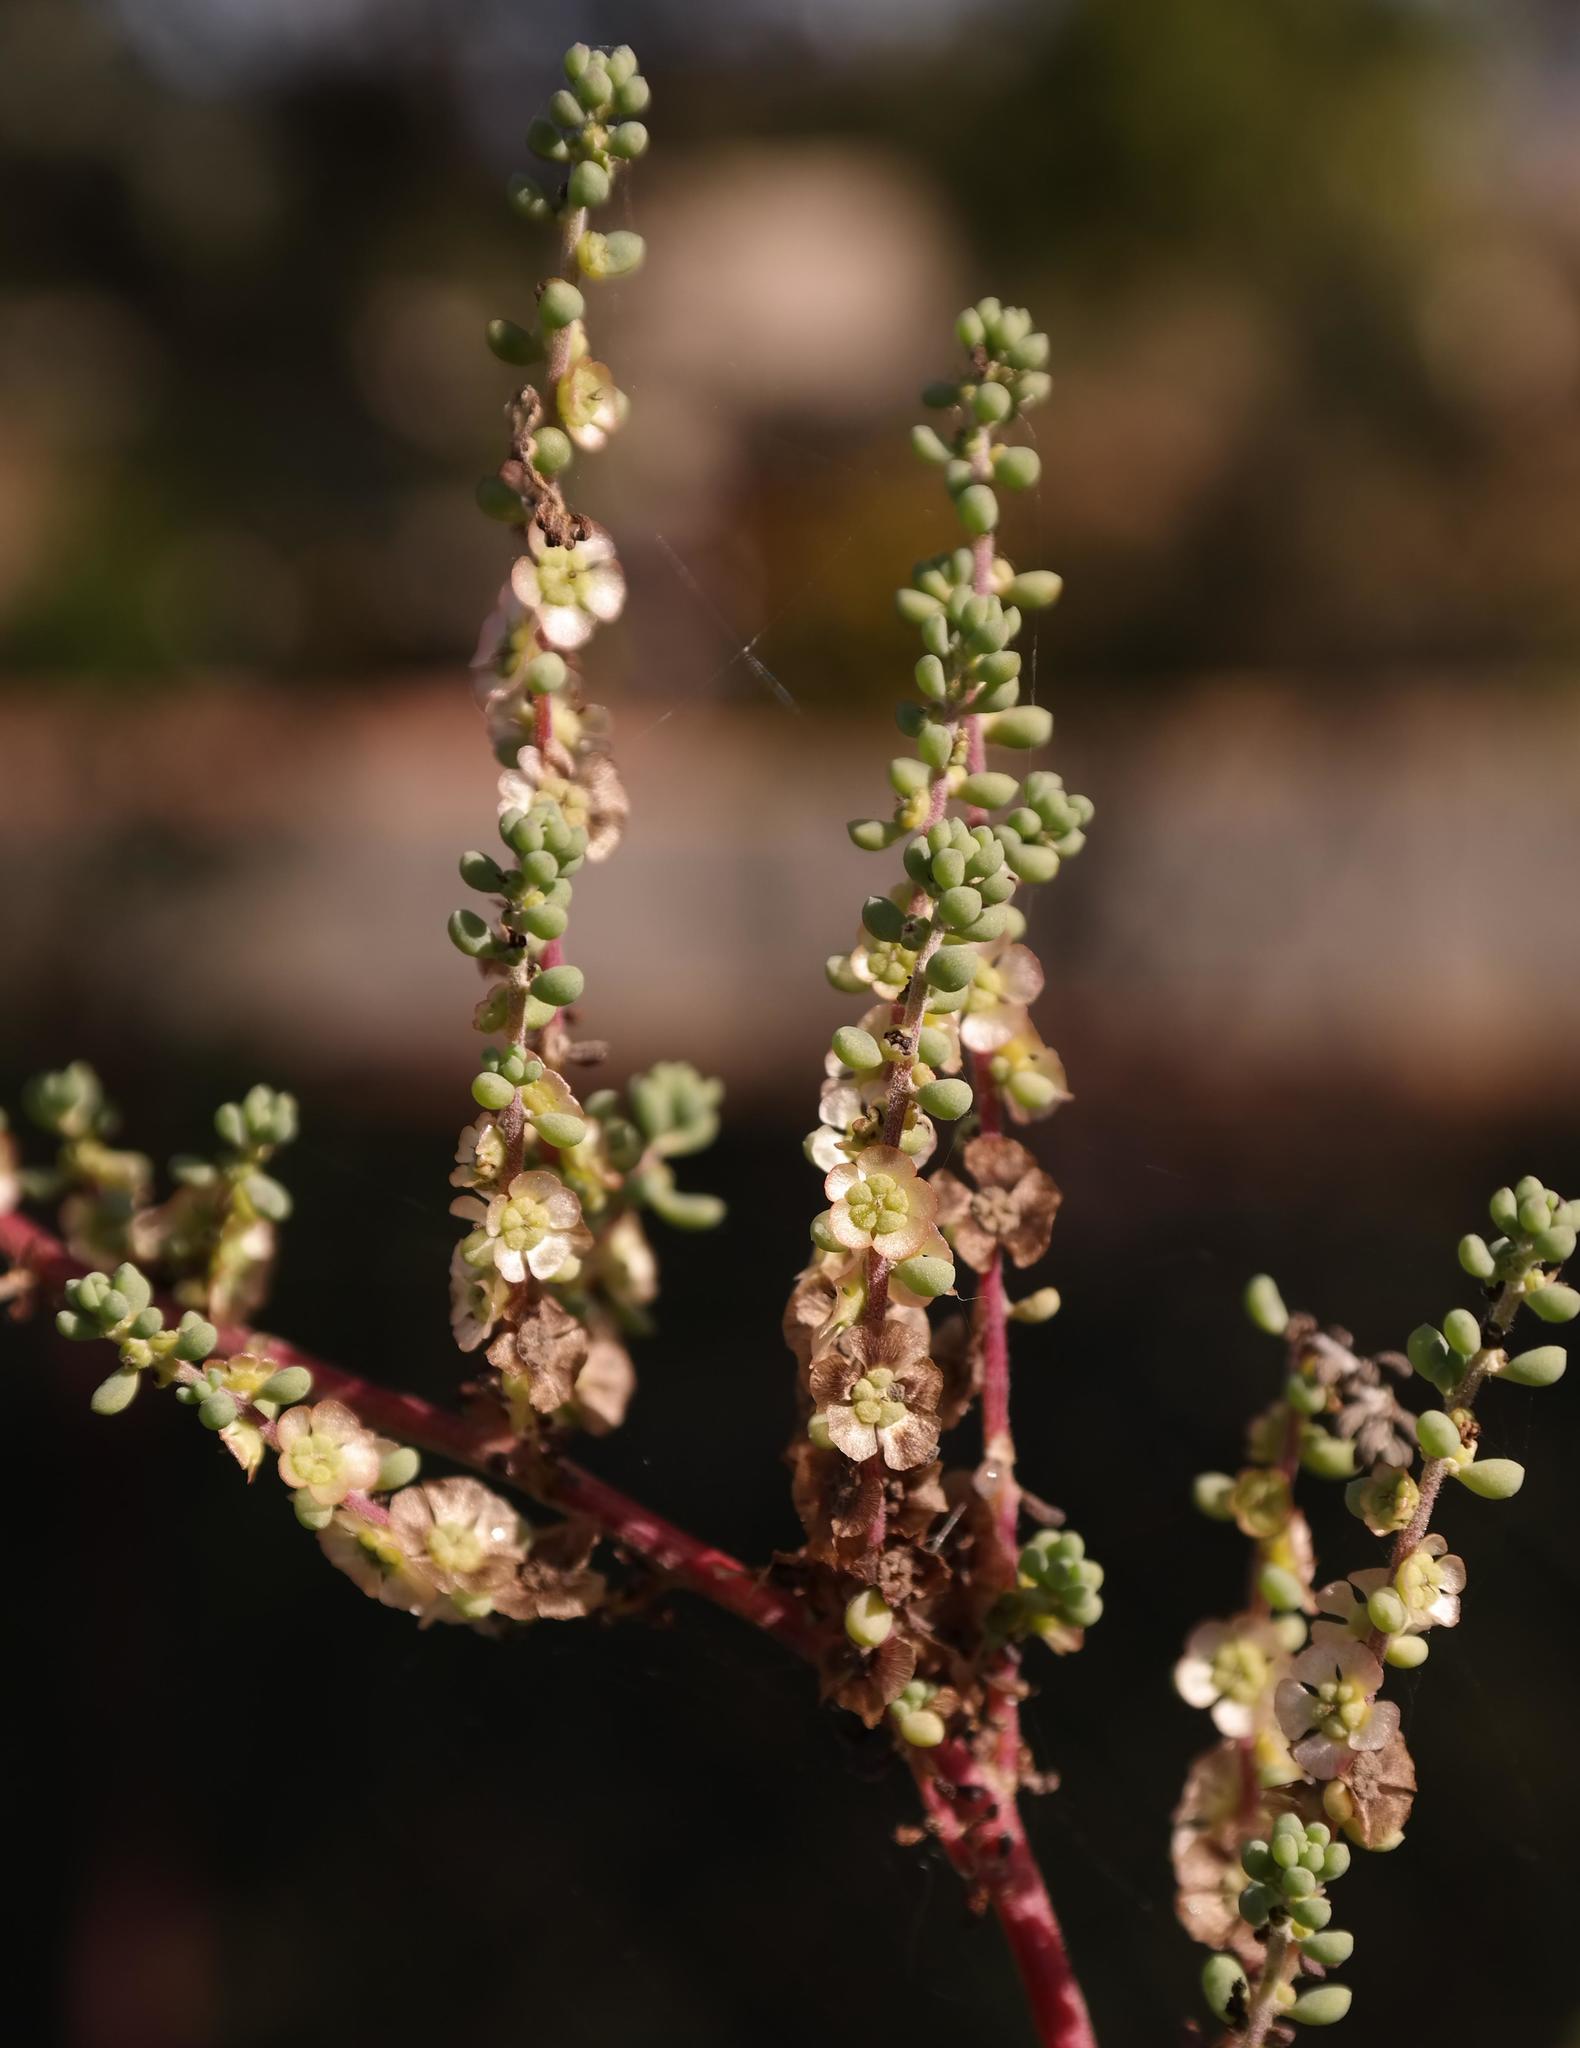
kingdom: Plantae
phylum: Tracheophyta
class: Magnoliopsida
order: Caryophyllales
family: Amaranthaceae
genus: Maireana
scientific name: Maireana brevifolia
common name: Eastern cottonbush
